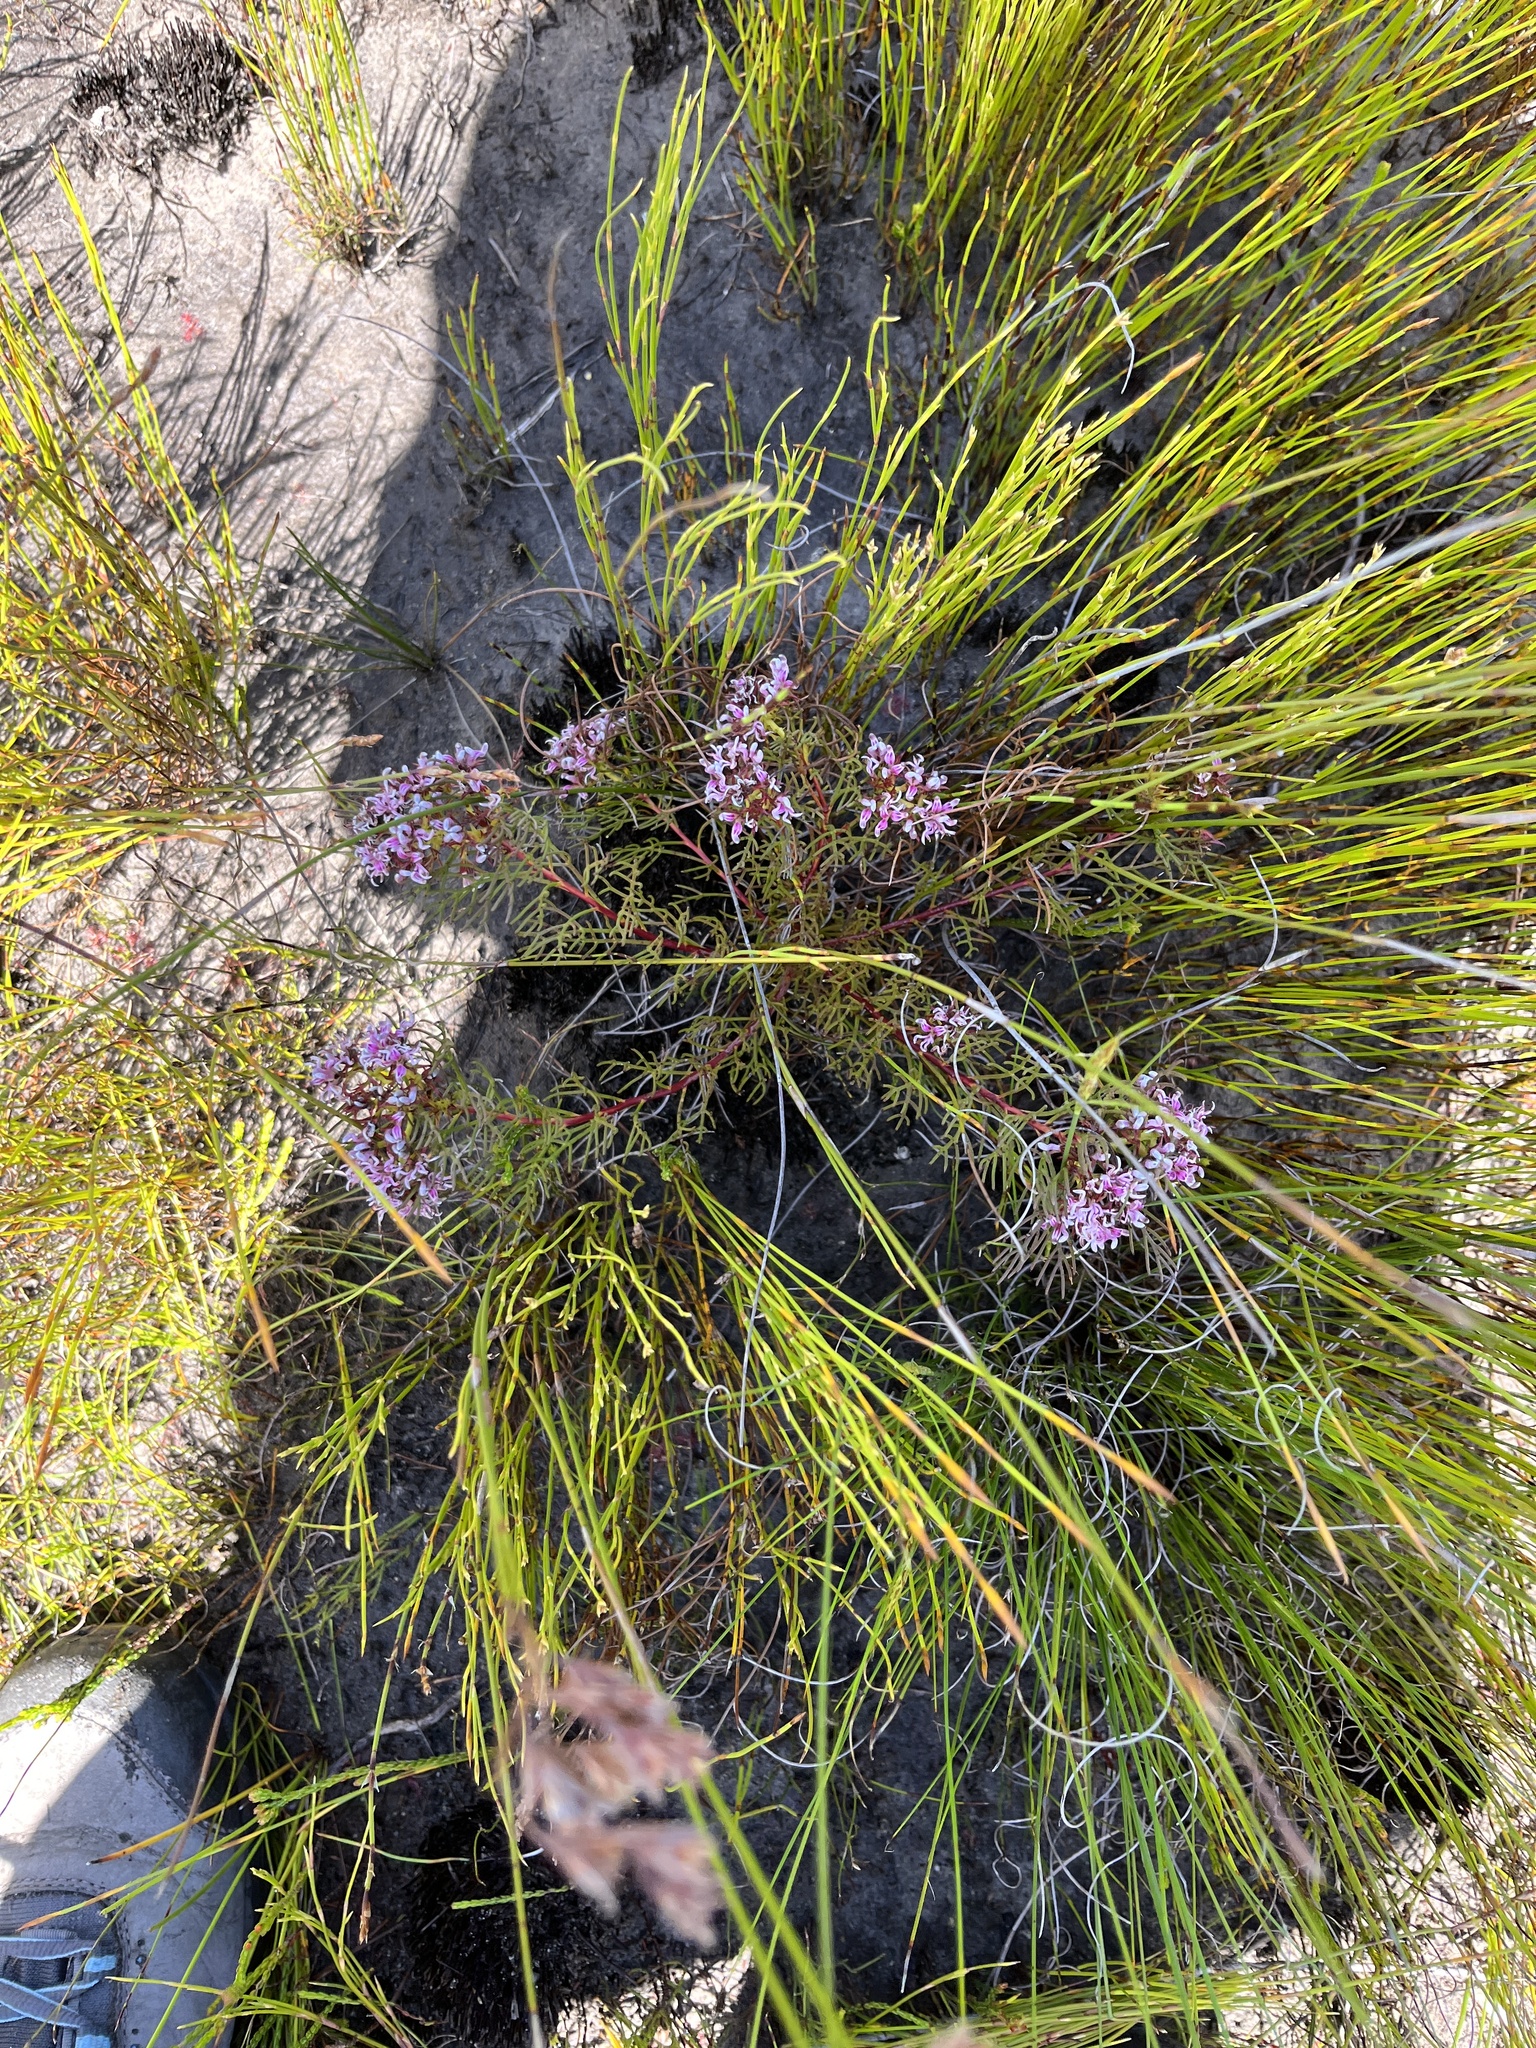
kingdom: Plantae
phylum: Tracheophyta
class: Magnoliopsida
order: Proteales
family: Proteaceae
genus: Serruria
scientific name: Serruria bolusii
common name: Agulhas spiderhead
